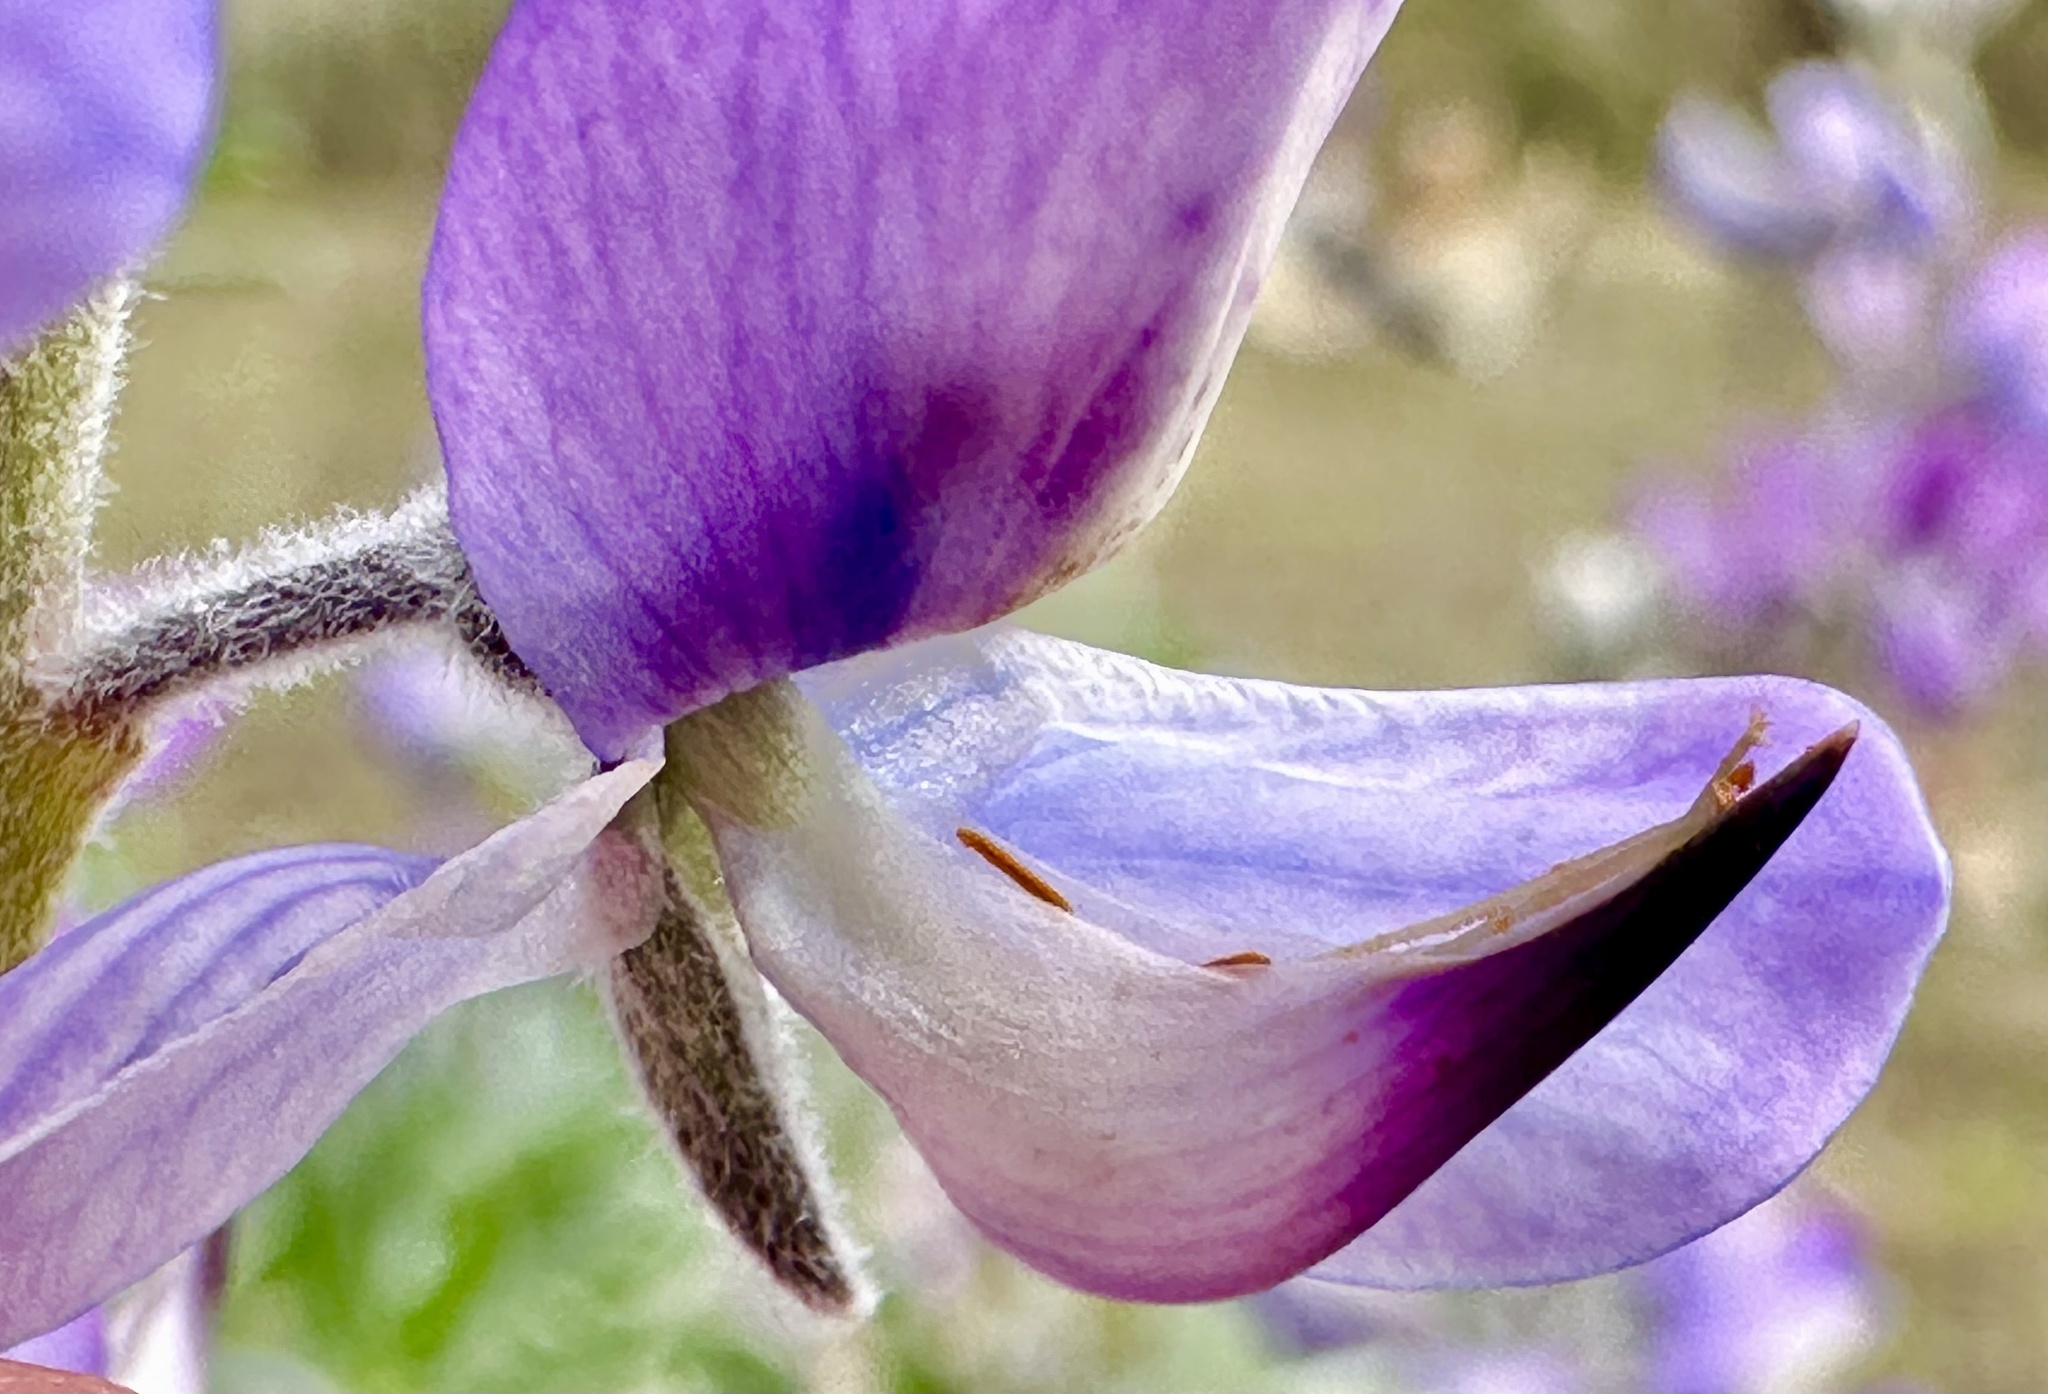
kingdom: Plantae
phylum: Tracheophyta
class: Magnoliopsida
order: Fabales
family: Fabaceae
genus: Lupinus
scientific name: Lupinus chamissonis
